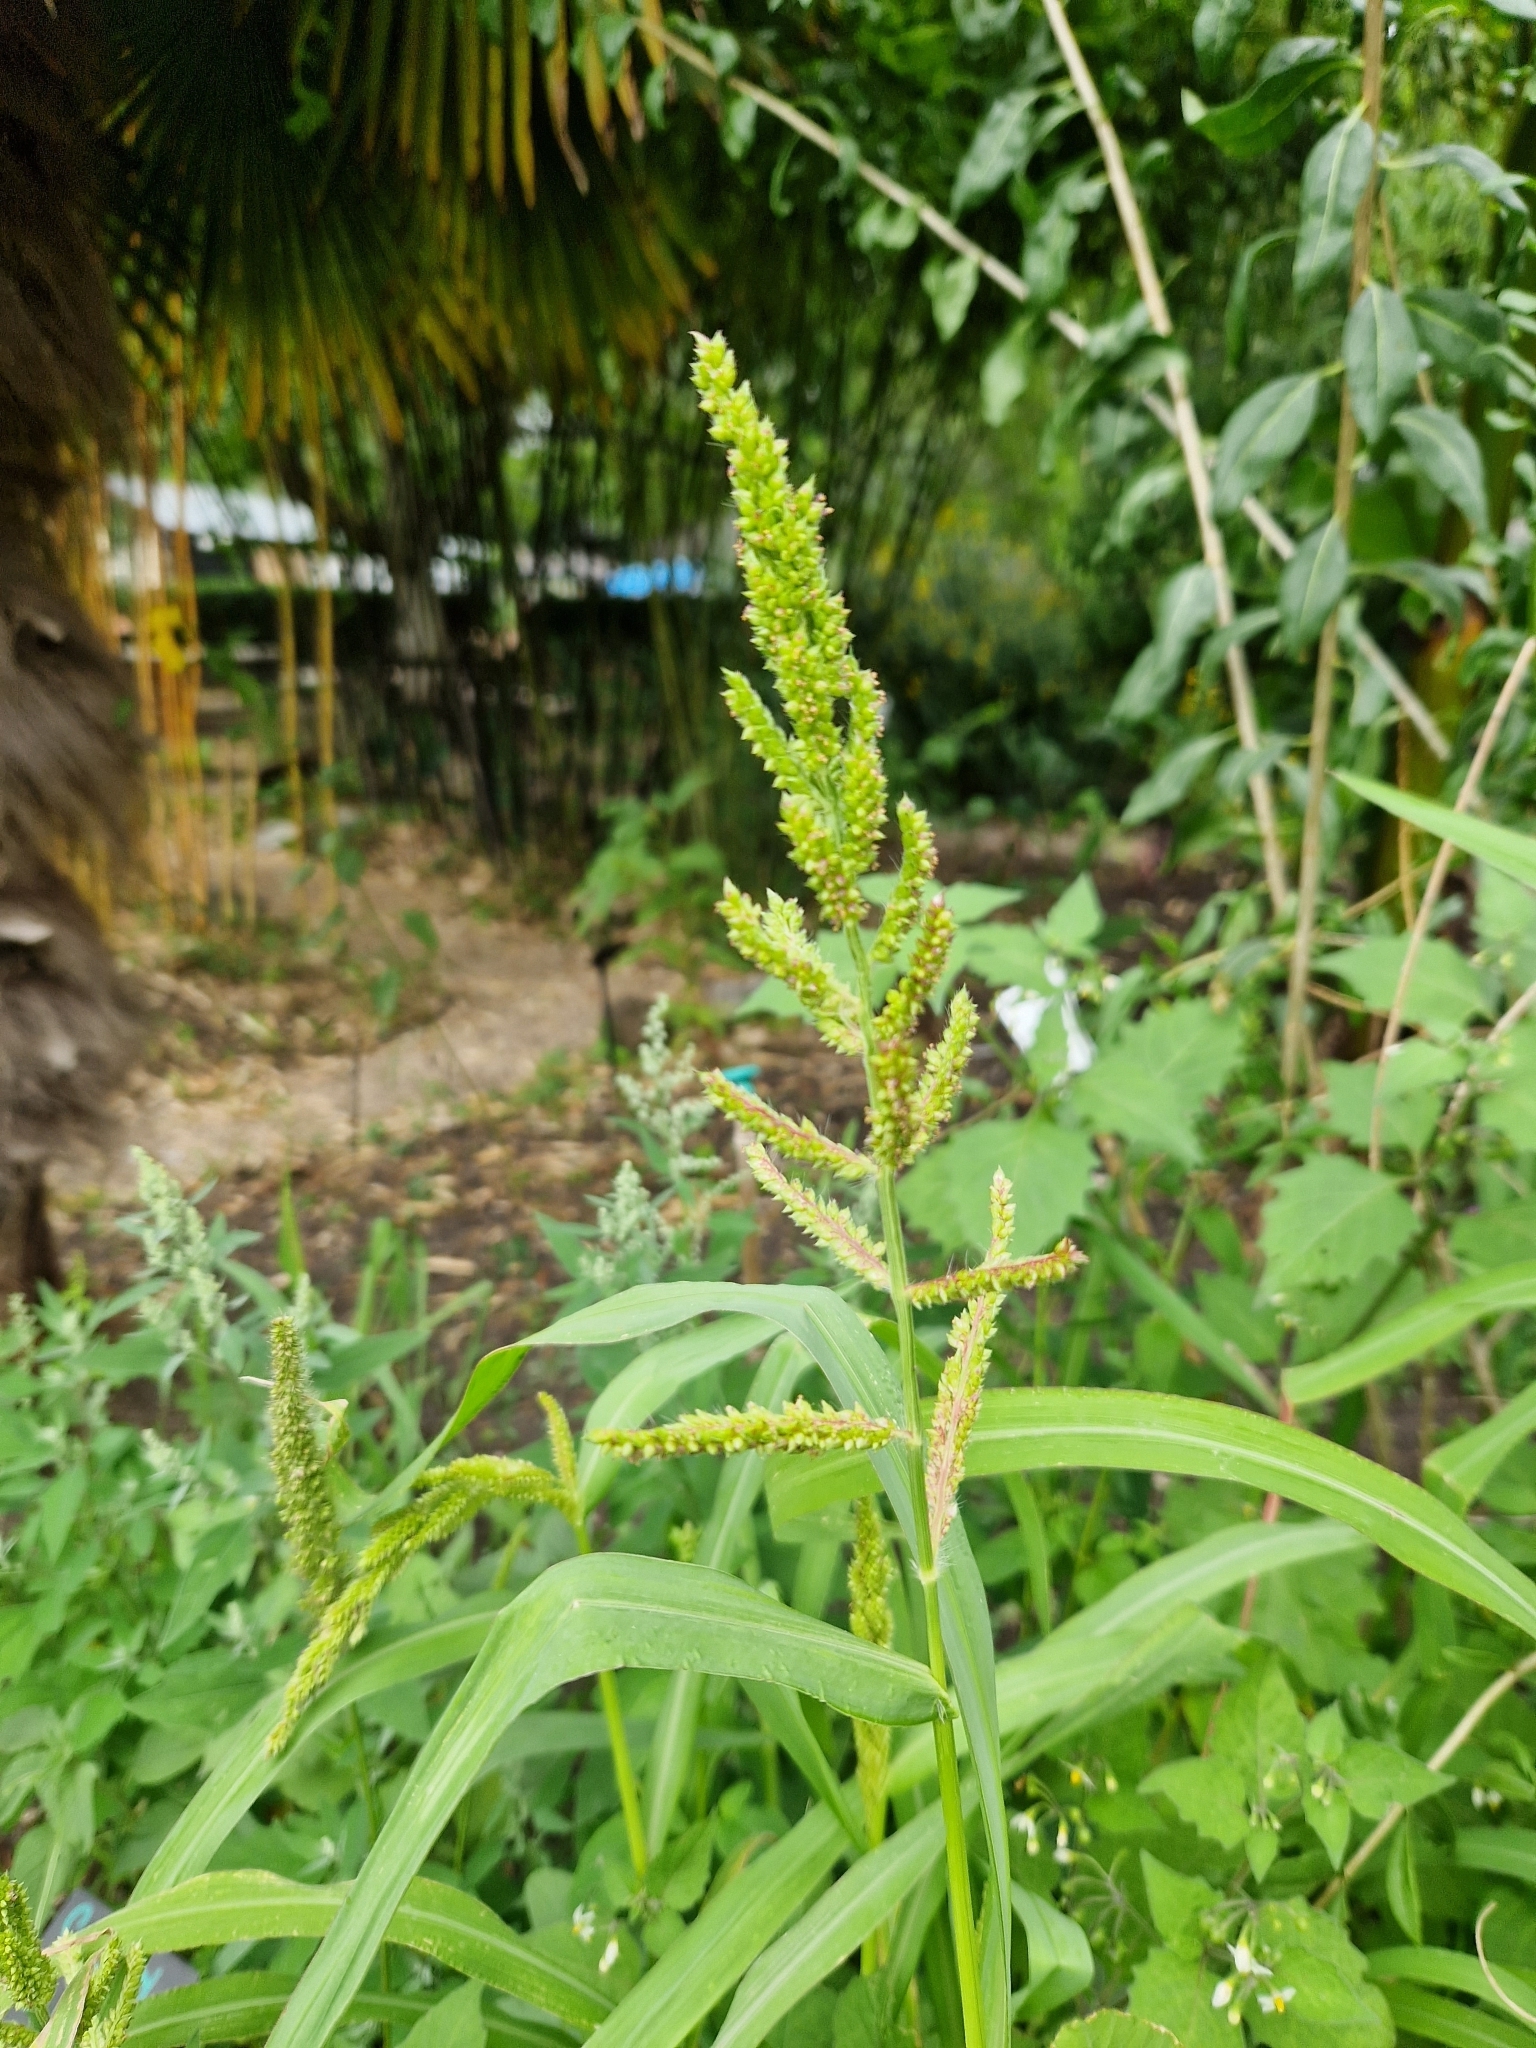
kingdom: Plantae
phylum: Tracheophyta
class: Liliopsida
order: Poales
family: Poaceae
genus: Echinochloa
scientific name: Echinochloa crus-galli
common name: Cockspur
